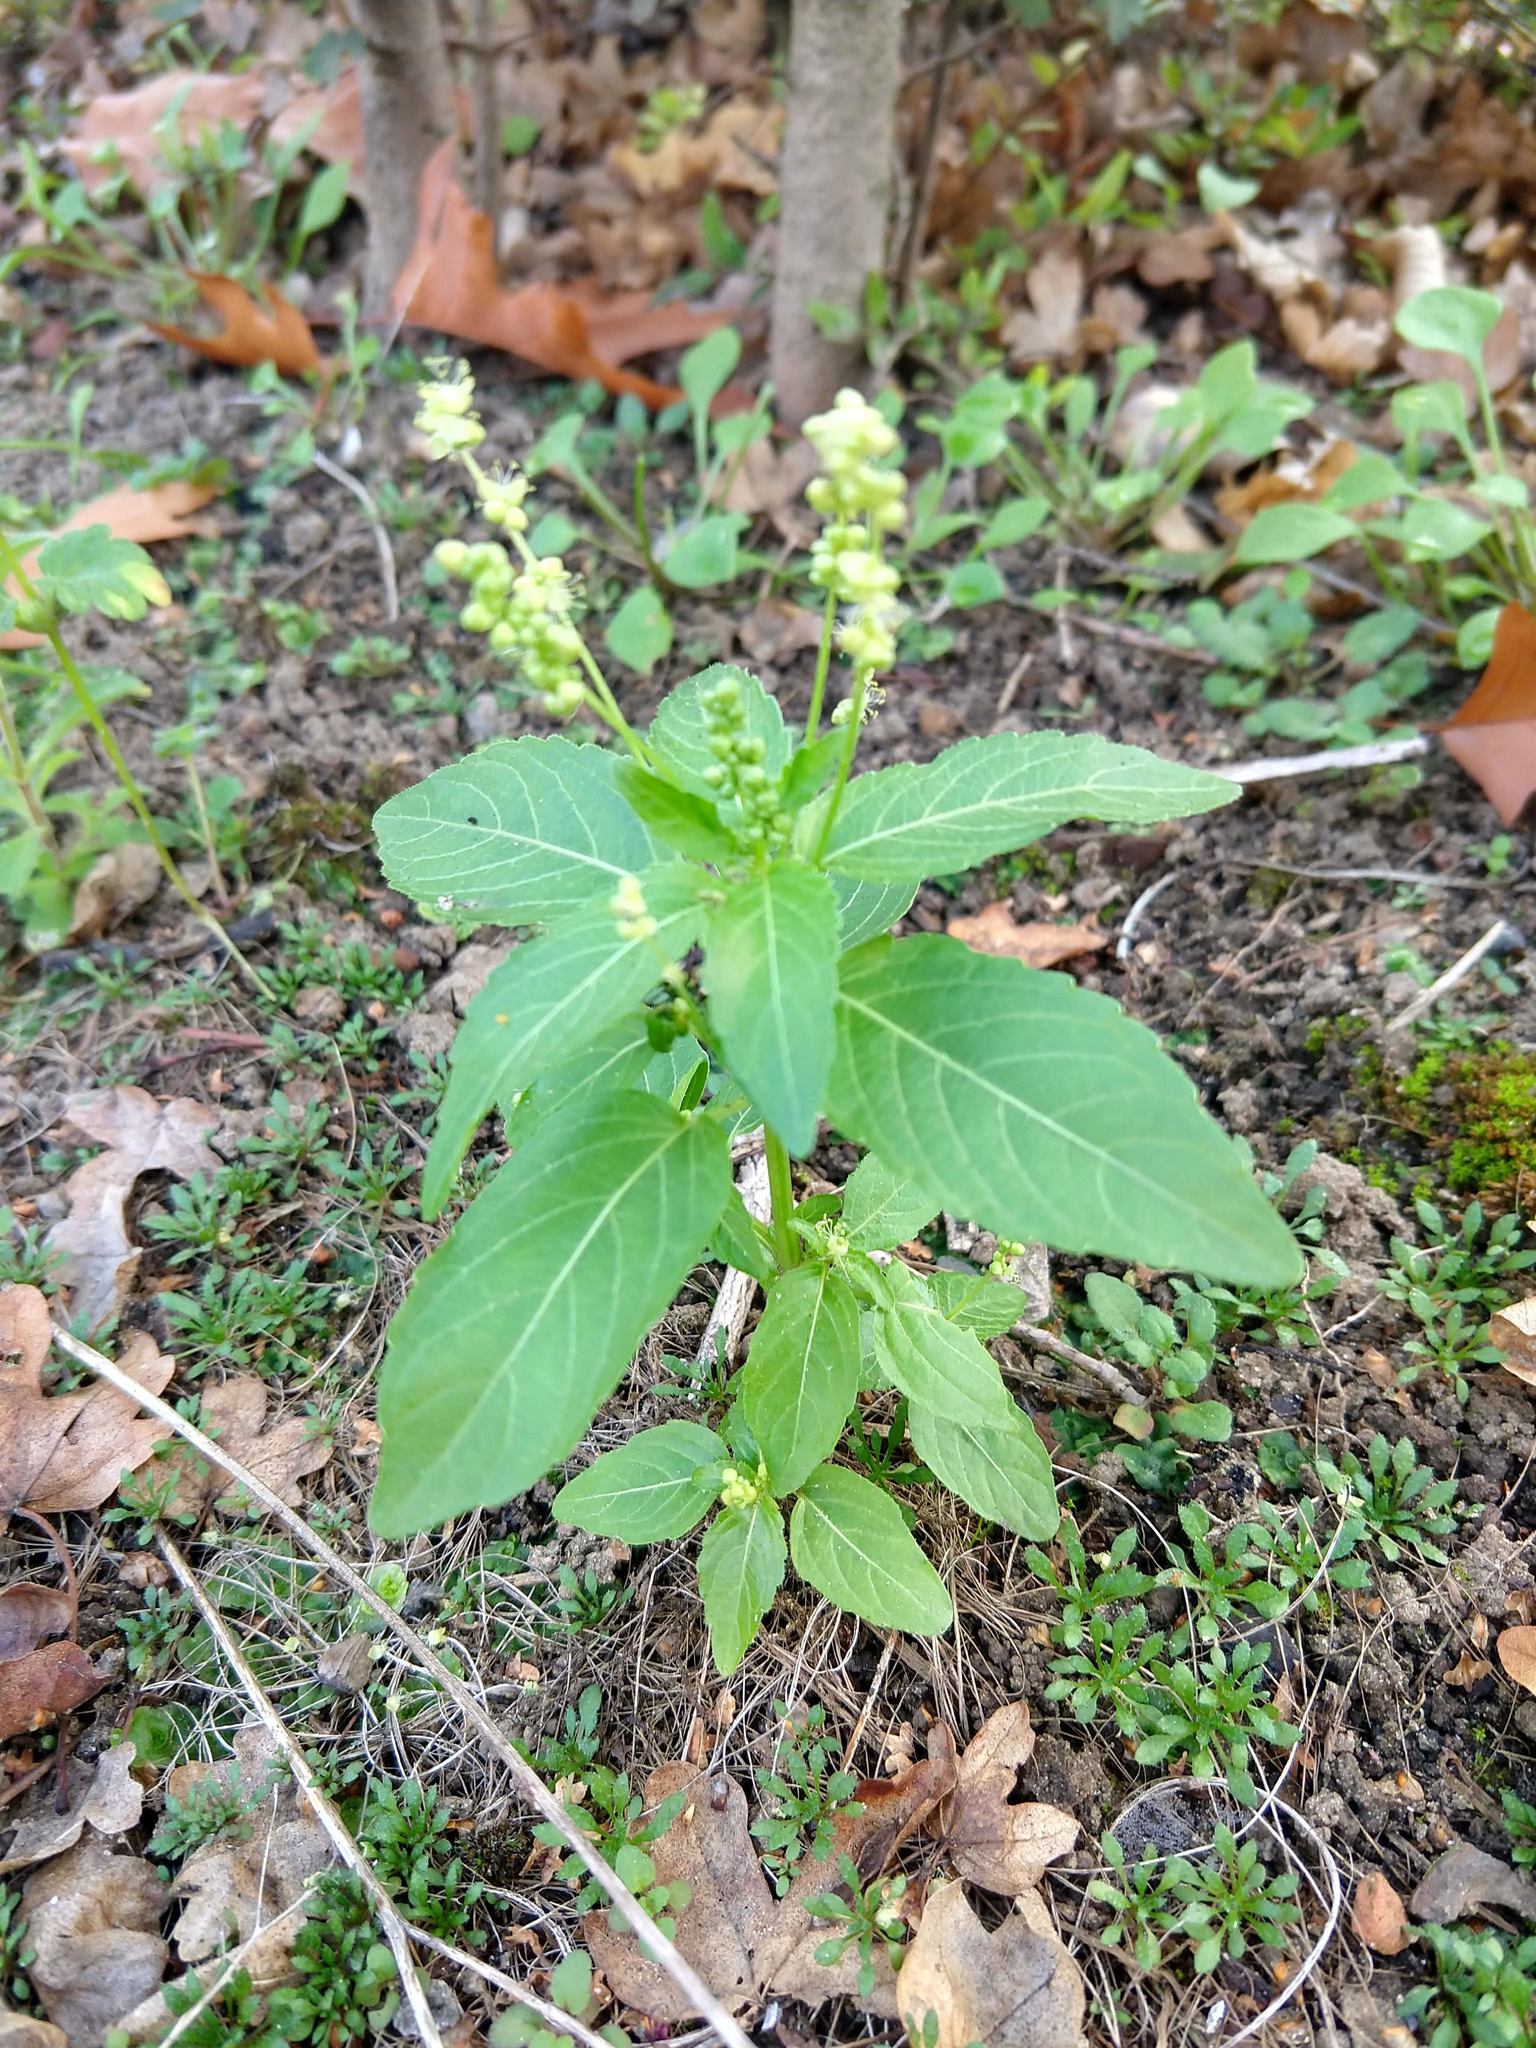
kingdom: Plantae
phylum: Tracheophyta
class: Magnoliopsida
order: Malpighiales
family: Euphorbiaceae
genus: Mercurialis
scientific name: Mercurialis annua
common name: Annual mercury
